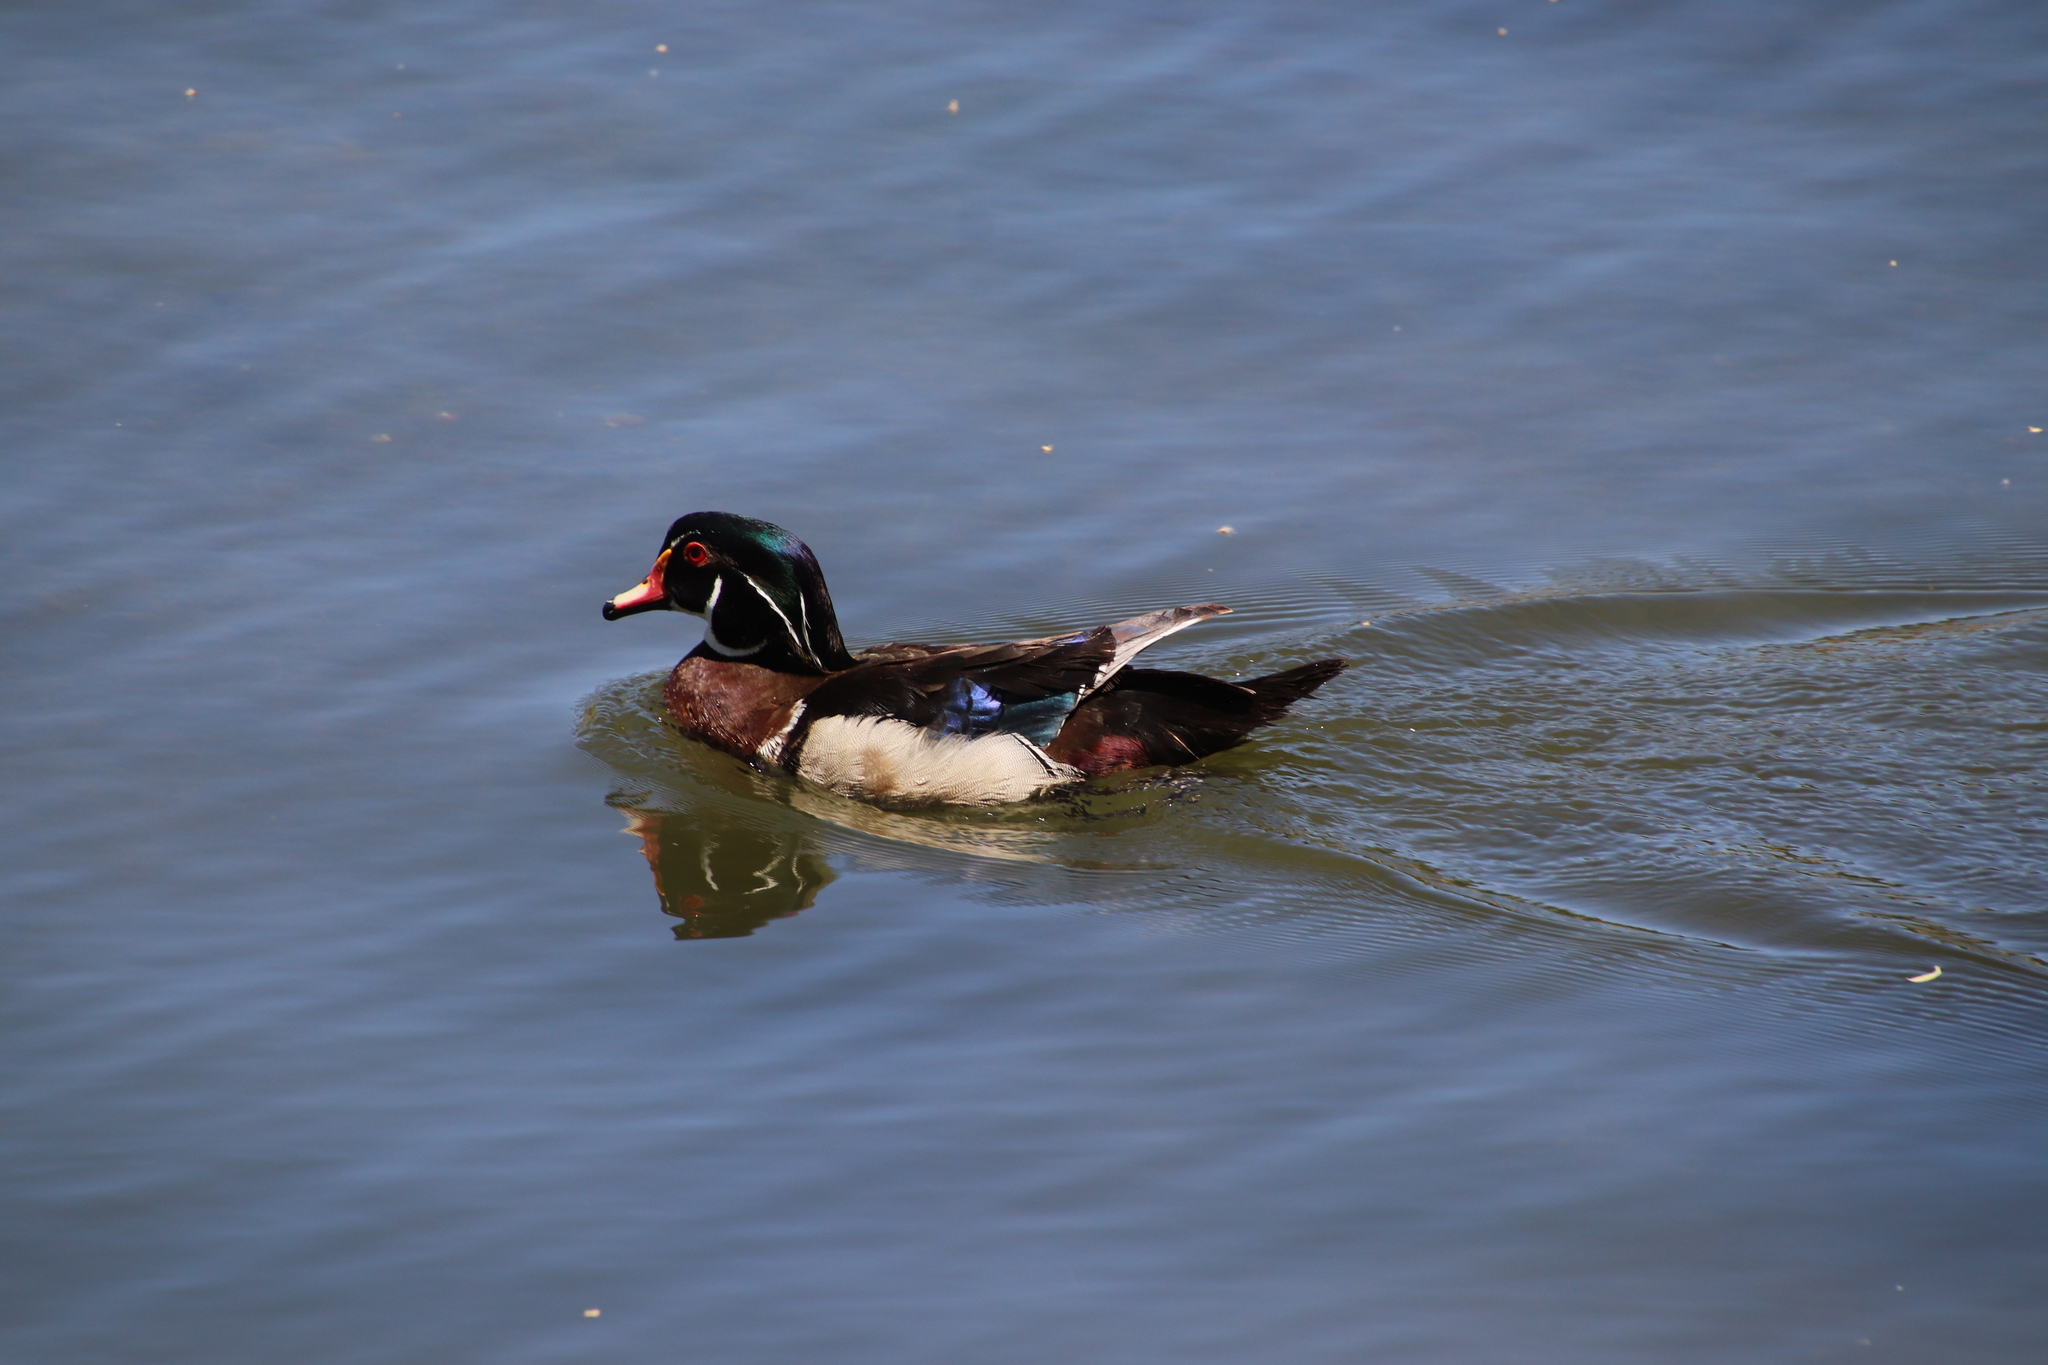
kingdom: Animalia
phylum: Chordata
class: Aves
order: Anseriformes
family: Anatidae
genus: Aix
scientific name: Aix sponsa
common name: Wood duck
